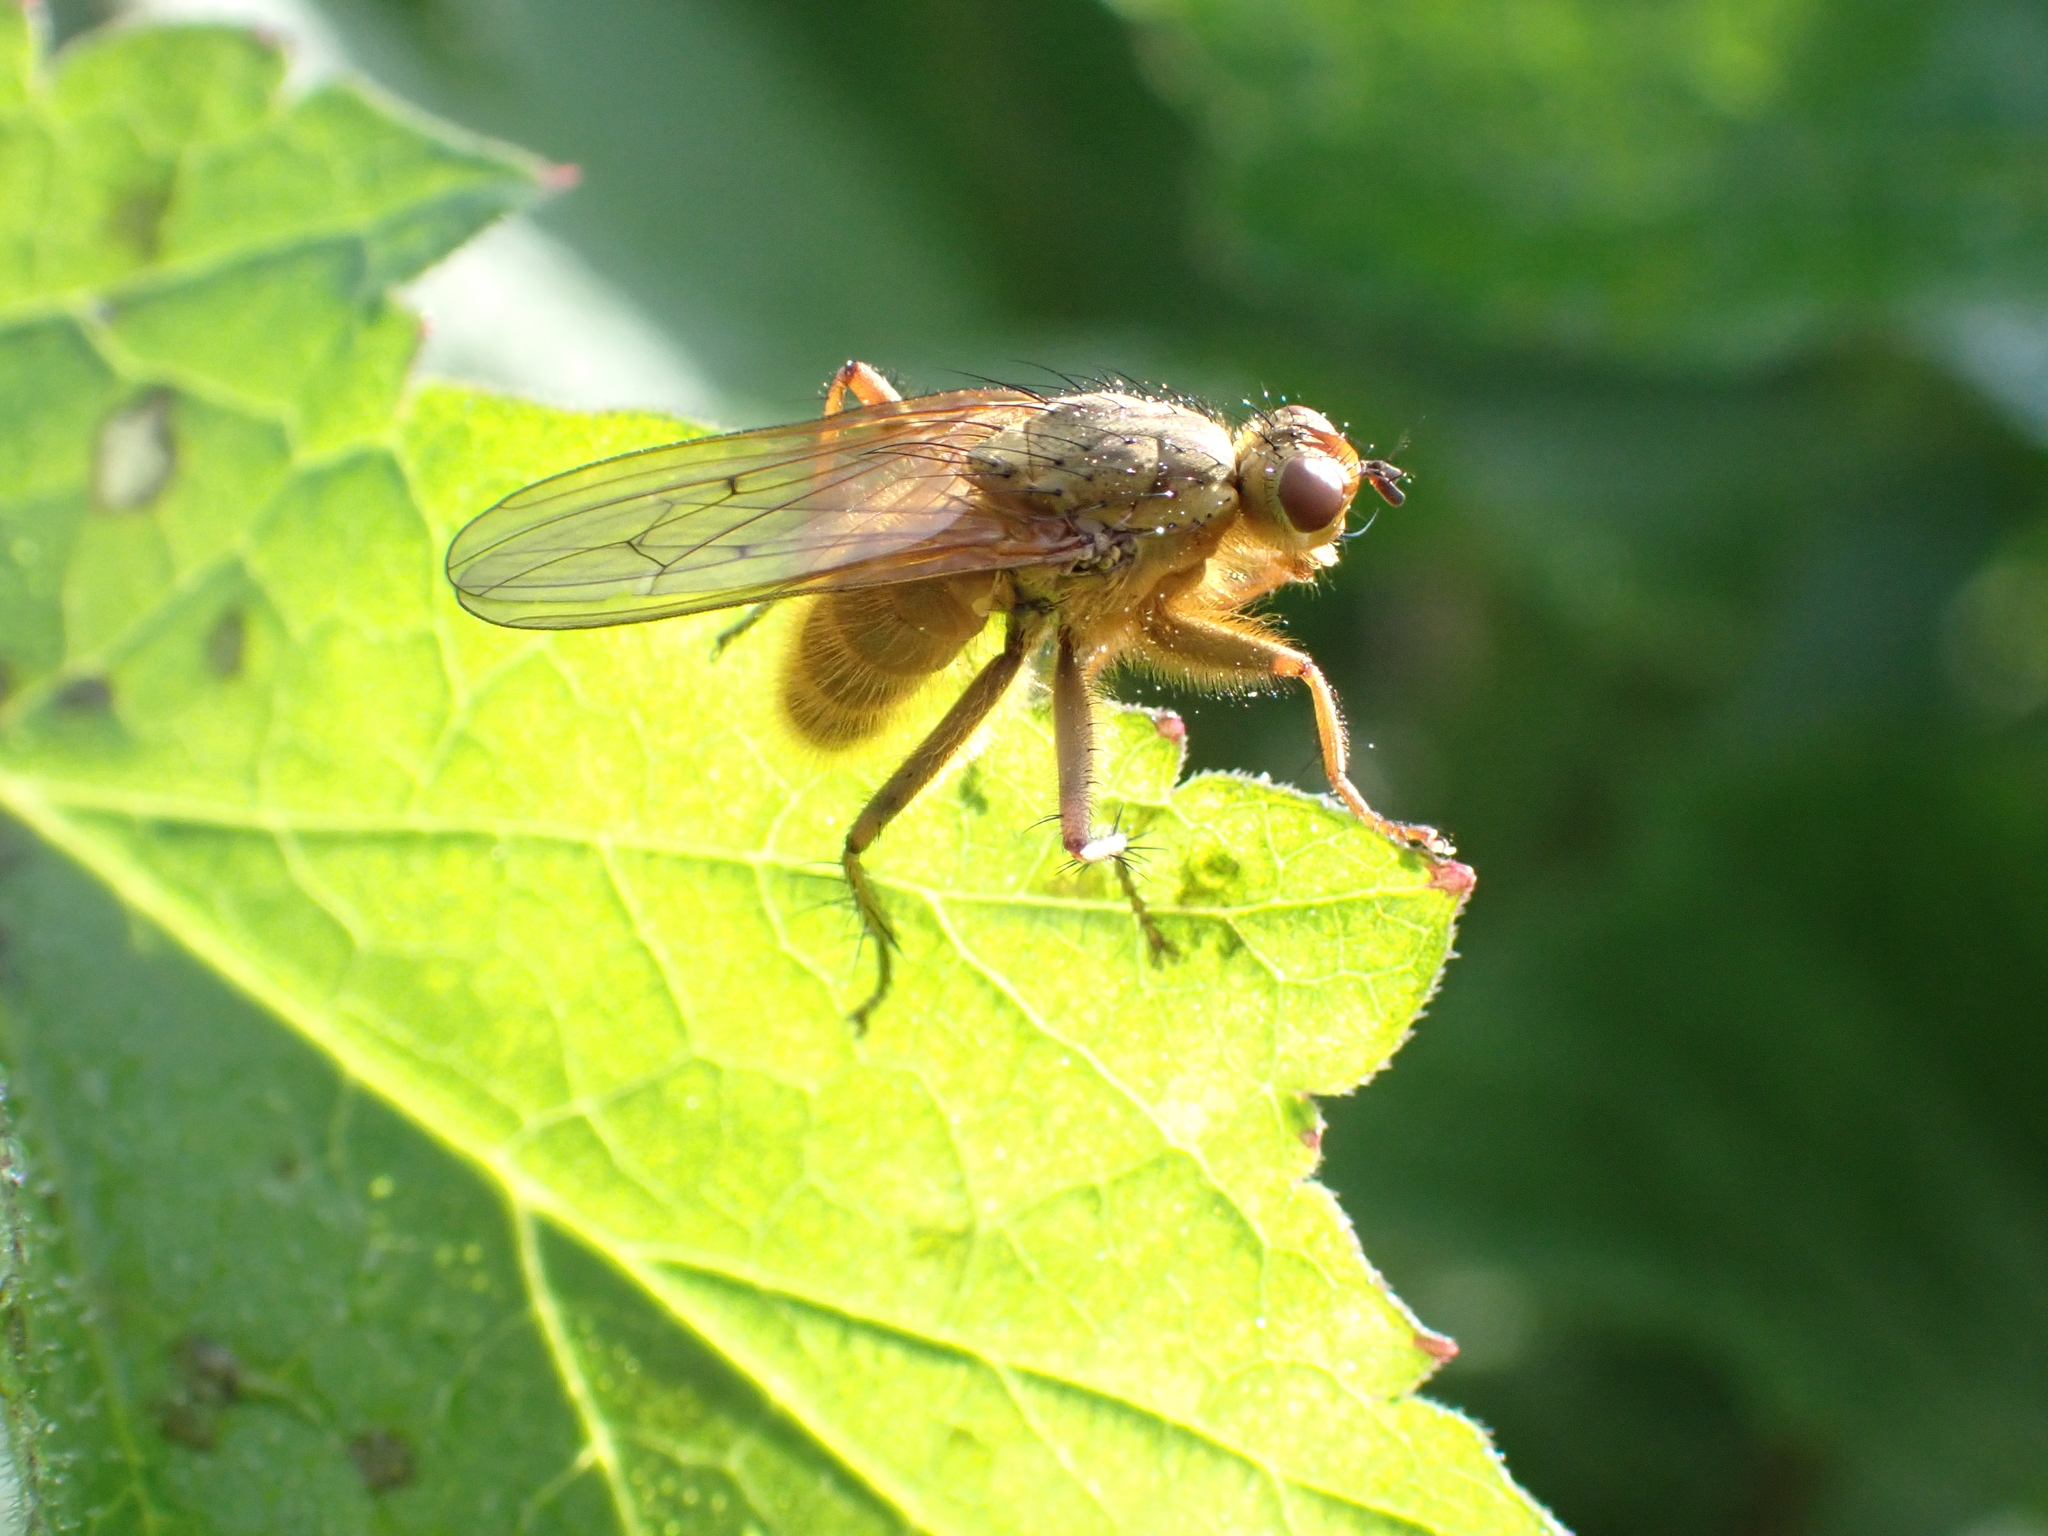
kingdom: Animalia
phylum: Arthropoda
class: Insecta
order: Diptera
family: Scathophagidae
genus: Scathophaga
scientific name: Scathophaga stercoraria
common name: Yellow dung fly
